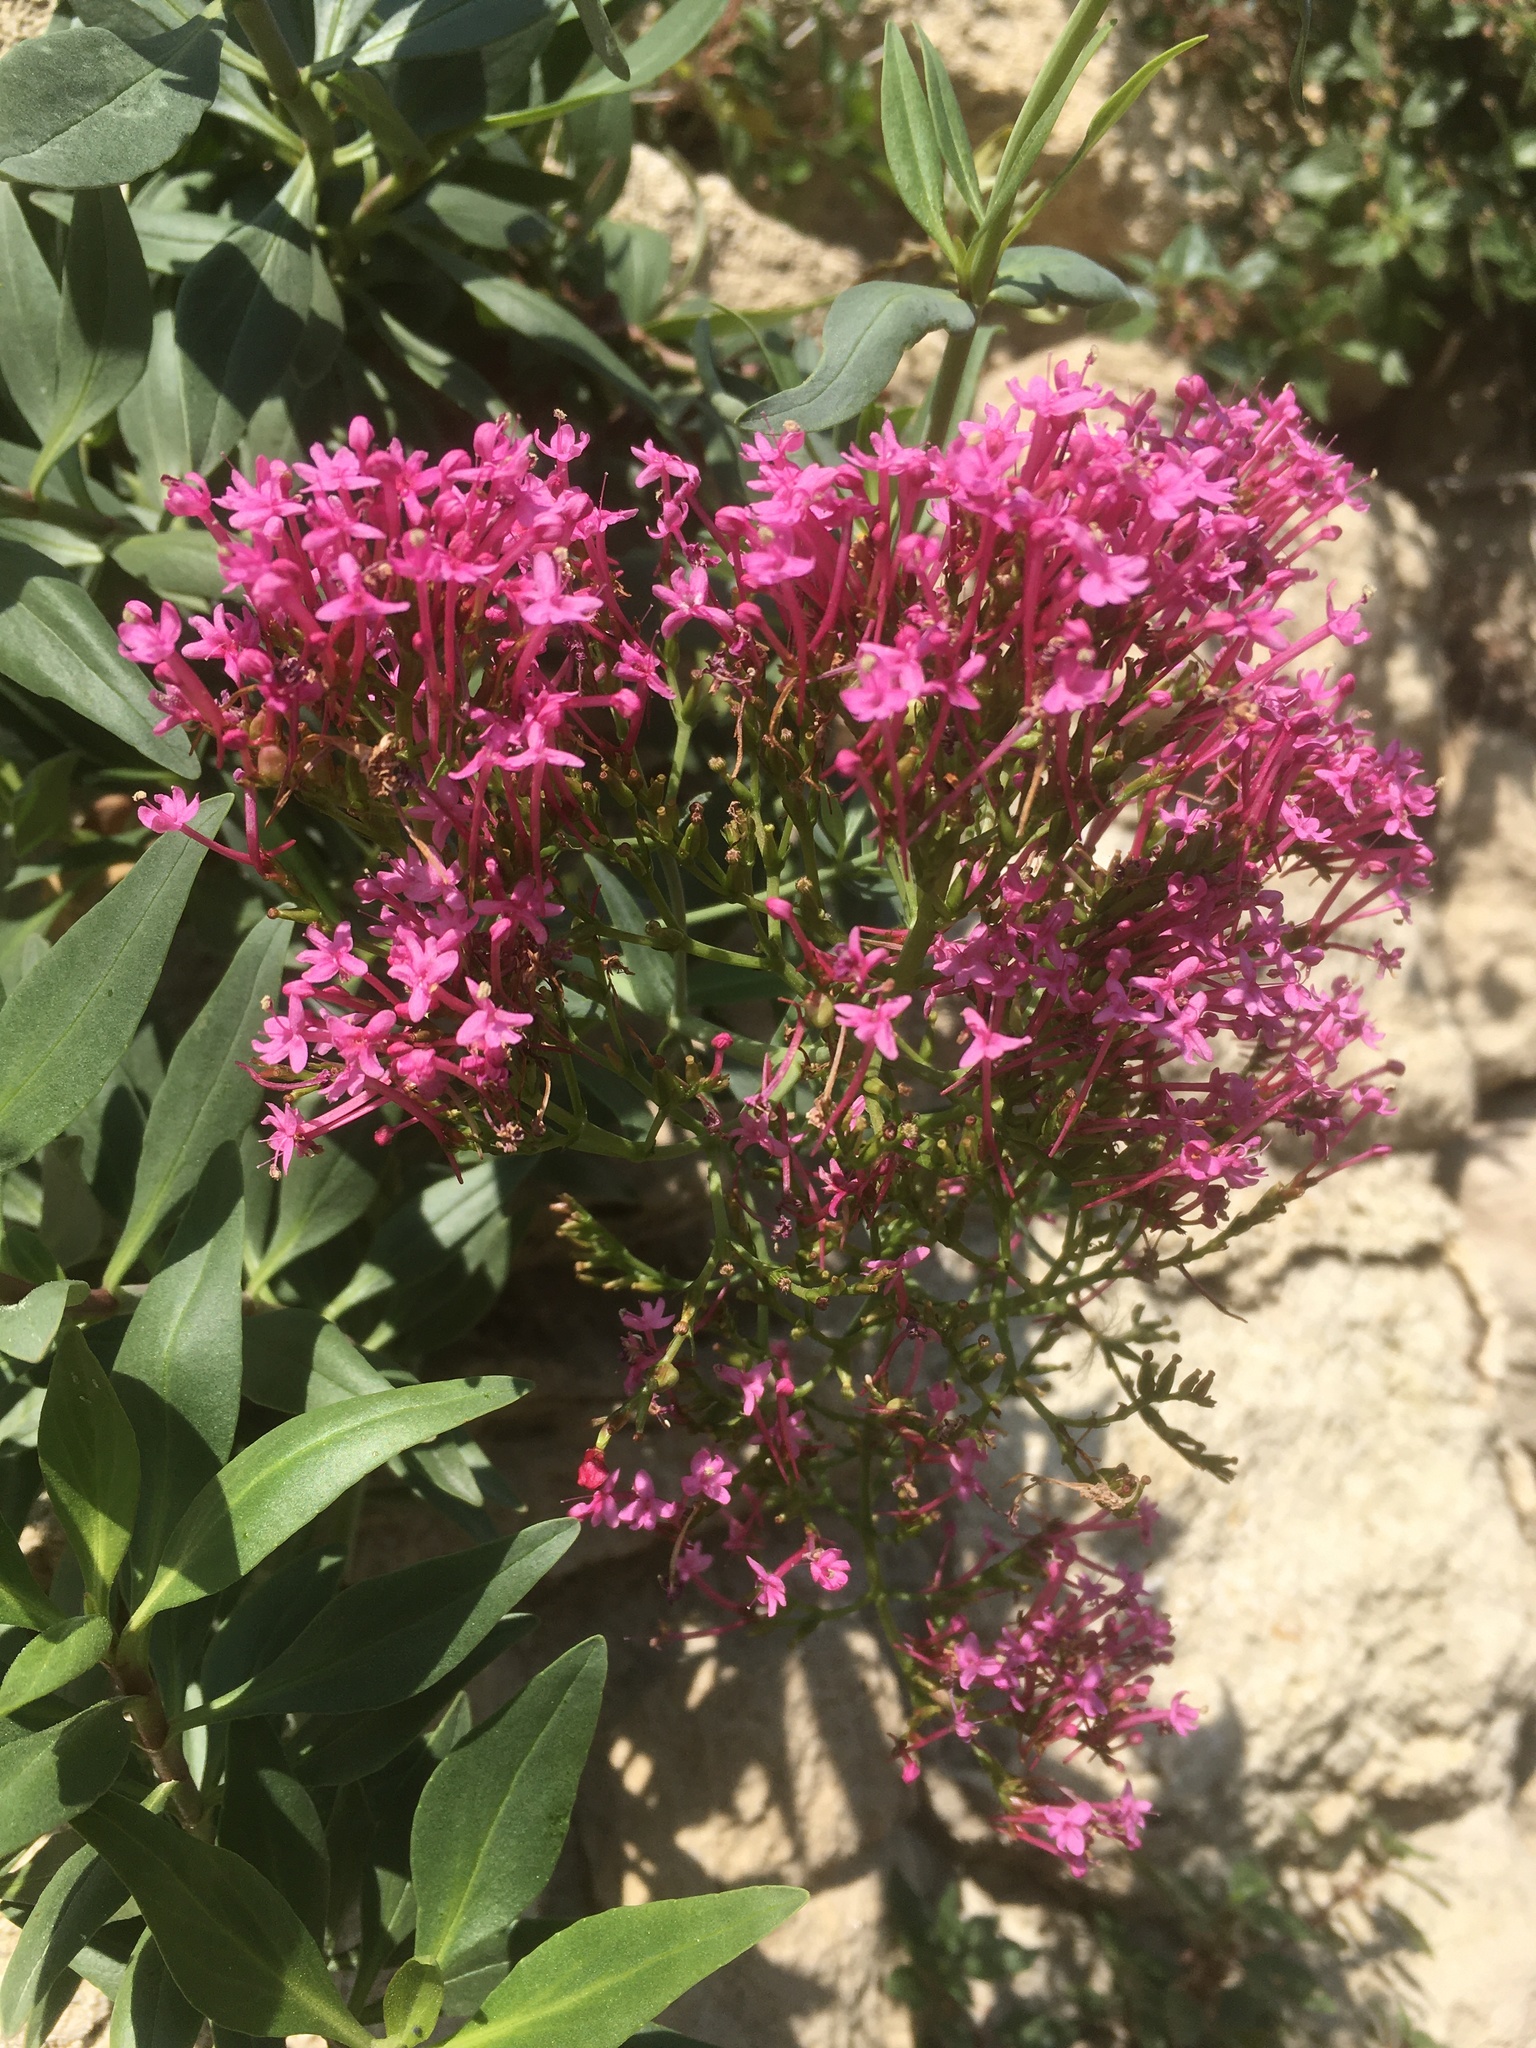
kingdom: Plantae
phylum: Tracheophyta
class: Magnoliopsida
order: Dipsacales
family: Caprifoliaceae
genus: Centranthus
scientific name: Centranthus ruber
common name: Red valerian
